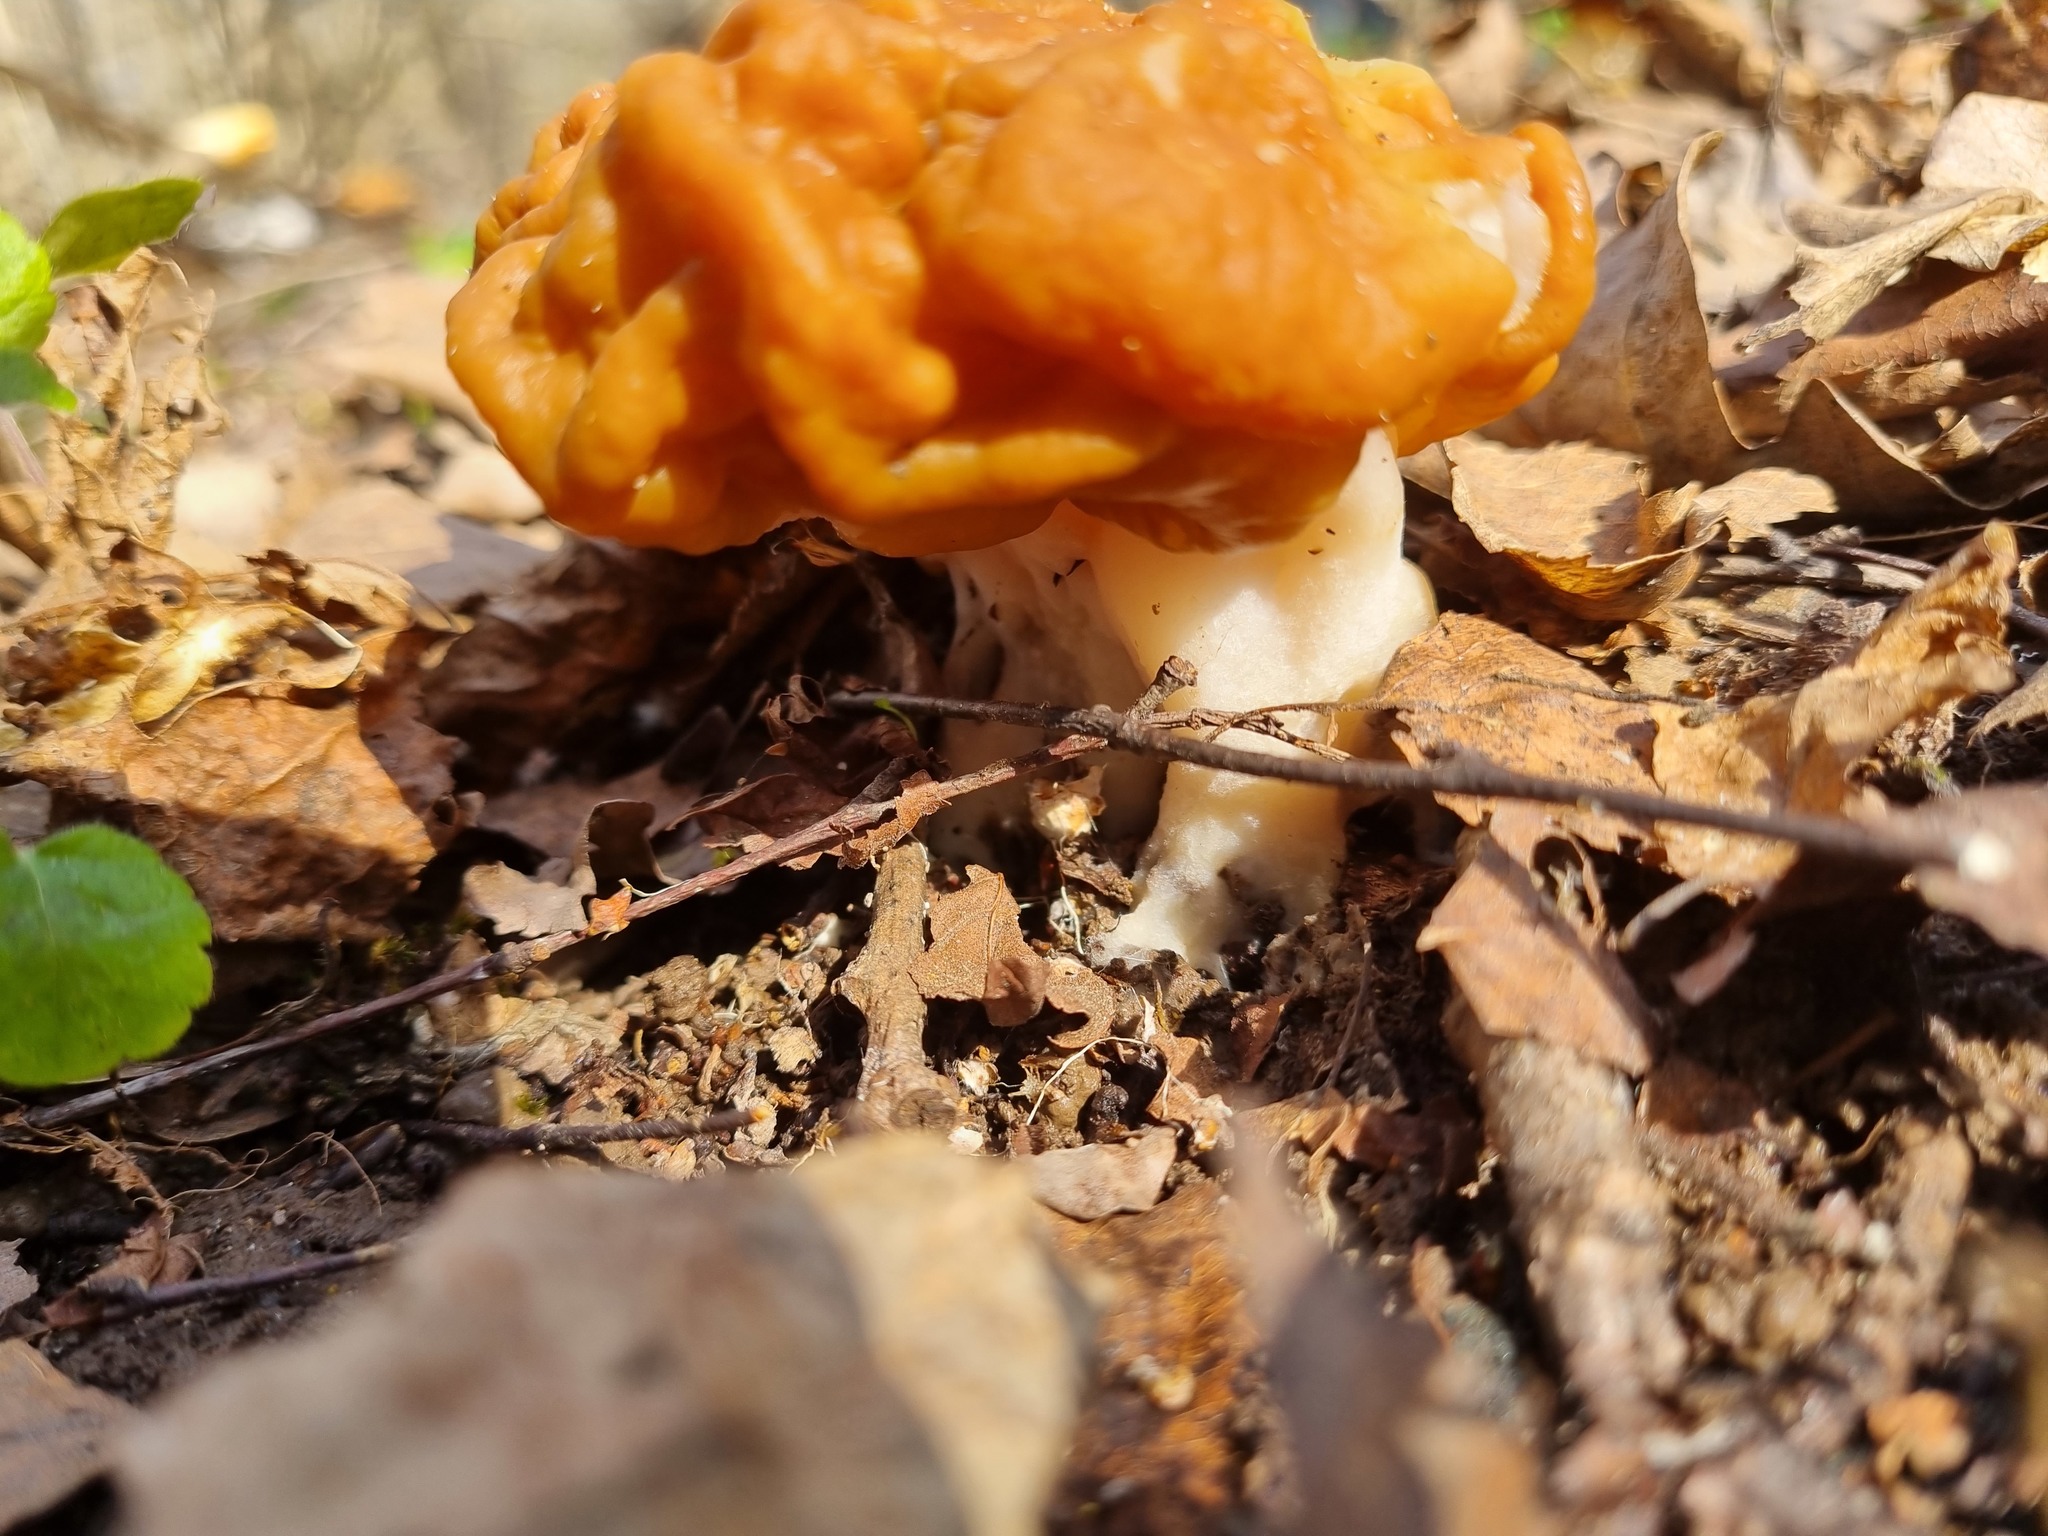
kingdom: Fungi
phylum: Ascomycota
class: Pezizomycetes
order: Pezizales
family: Discinaceae
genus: Gyromitra
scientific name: Gyromitra gigas
